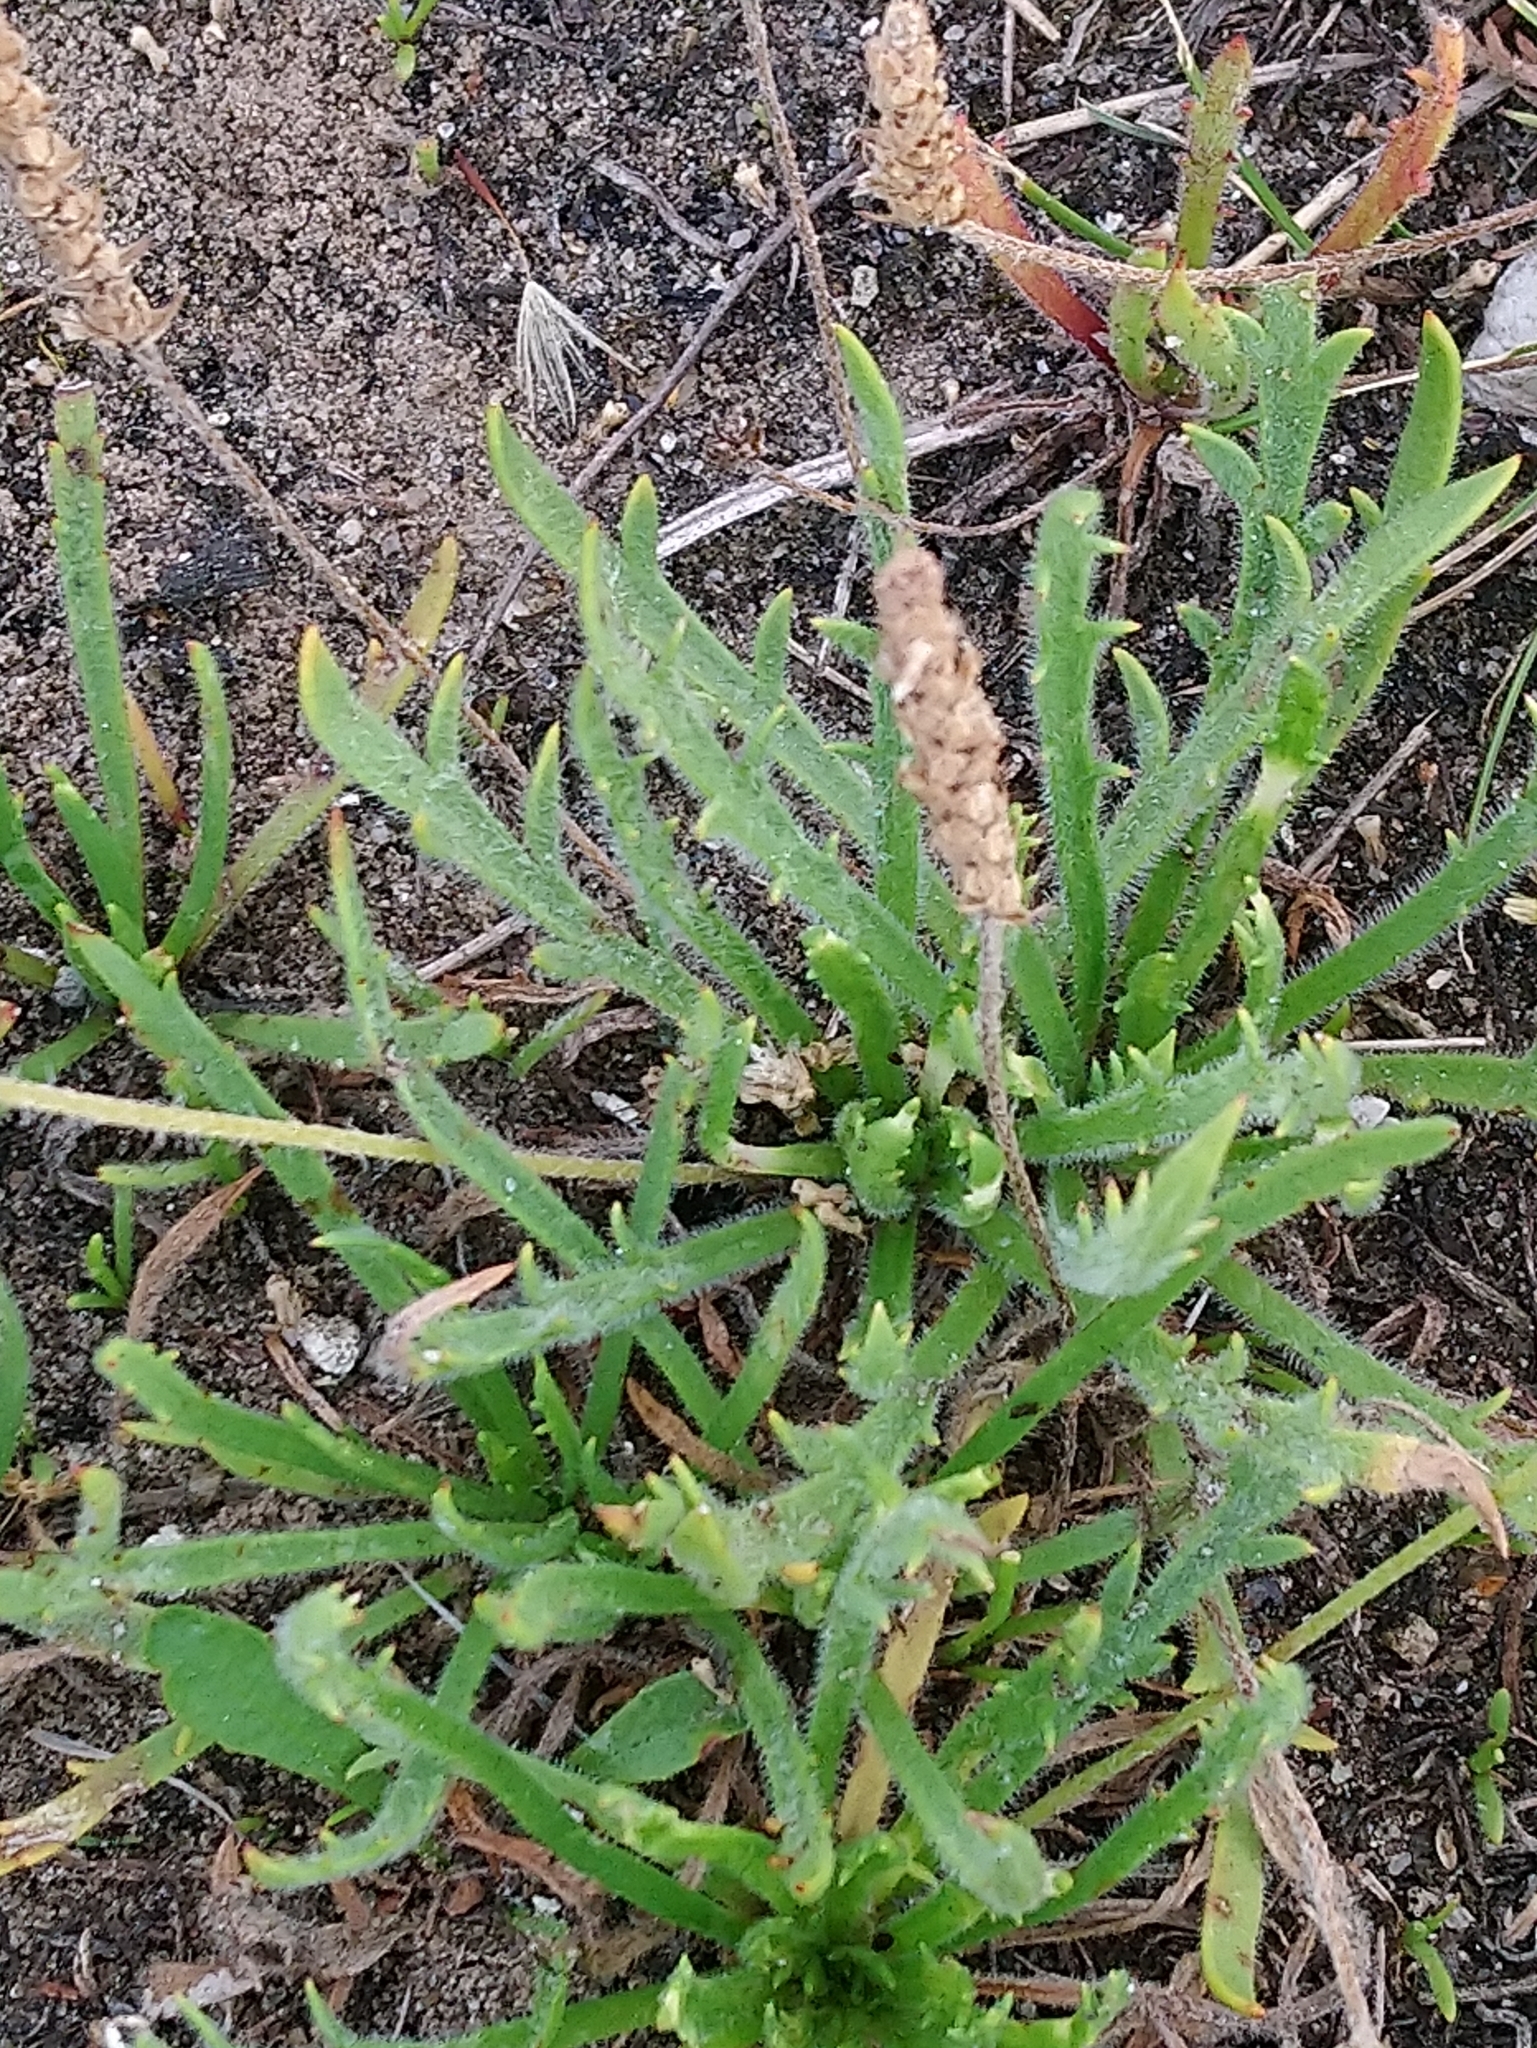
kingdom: Plantae
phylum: Tracheophyta
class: Magnoliopsida
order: Lamiales
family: Plantaginaceae
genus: Plantago
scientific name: Plantago coronopus
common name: Buck's-horn plantain
